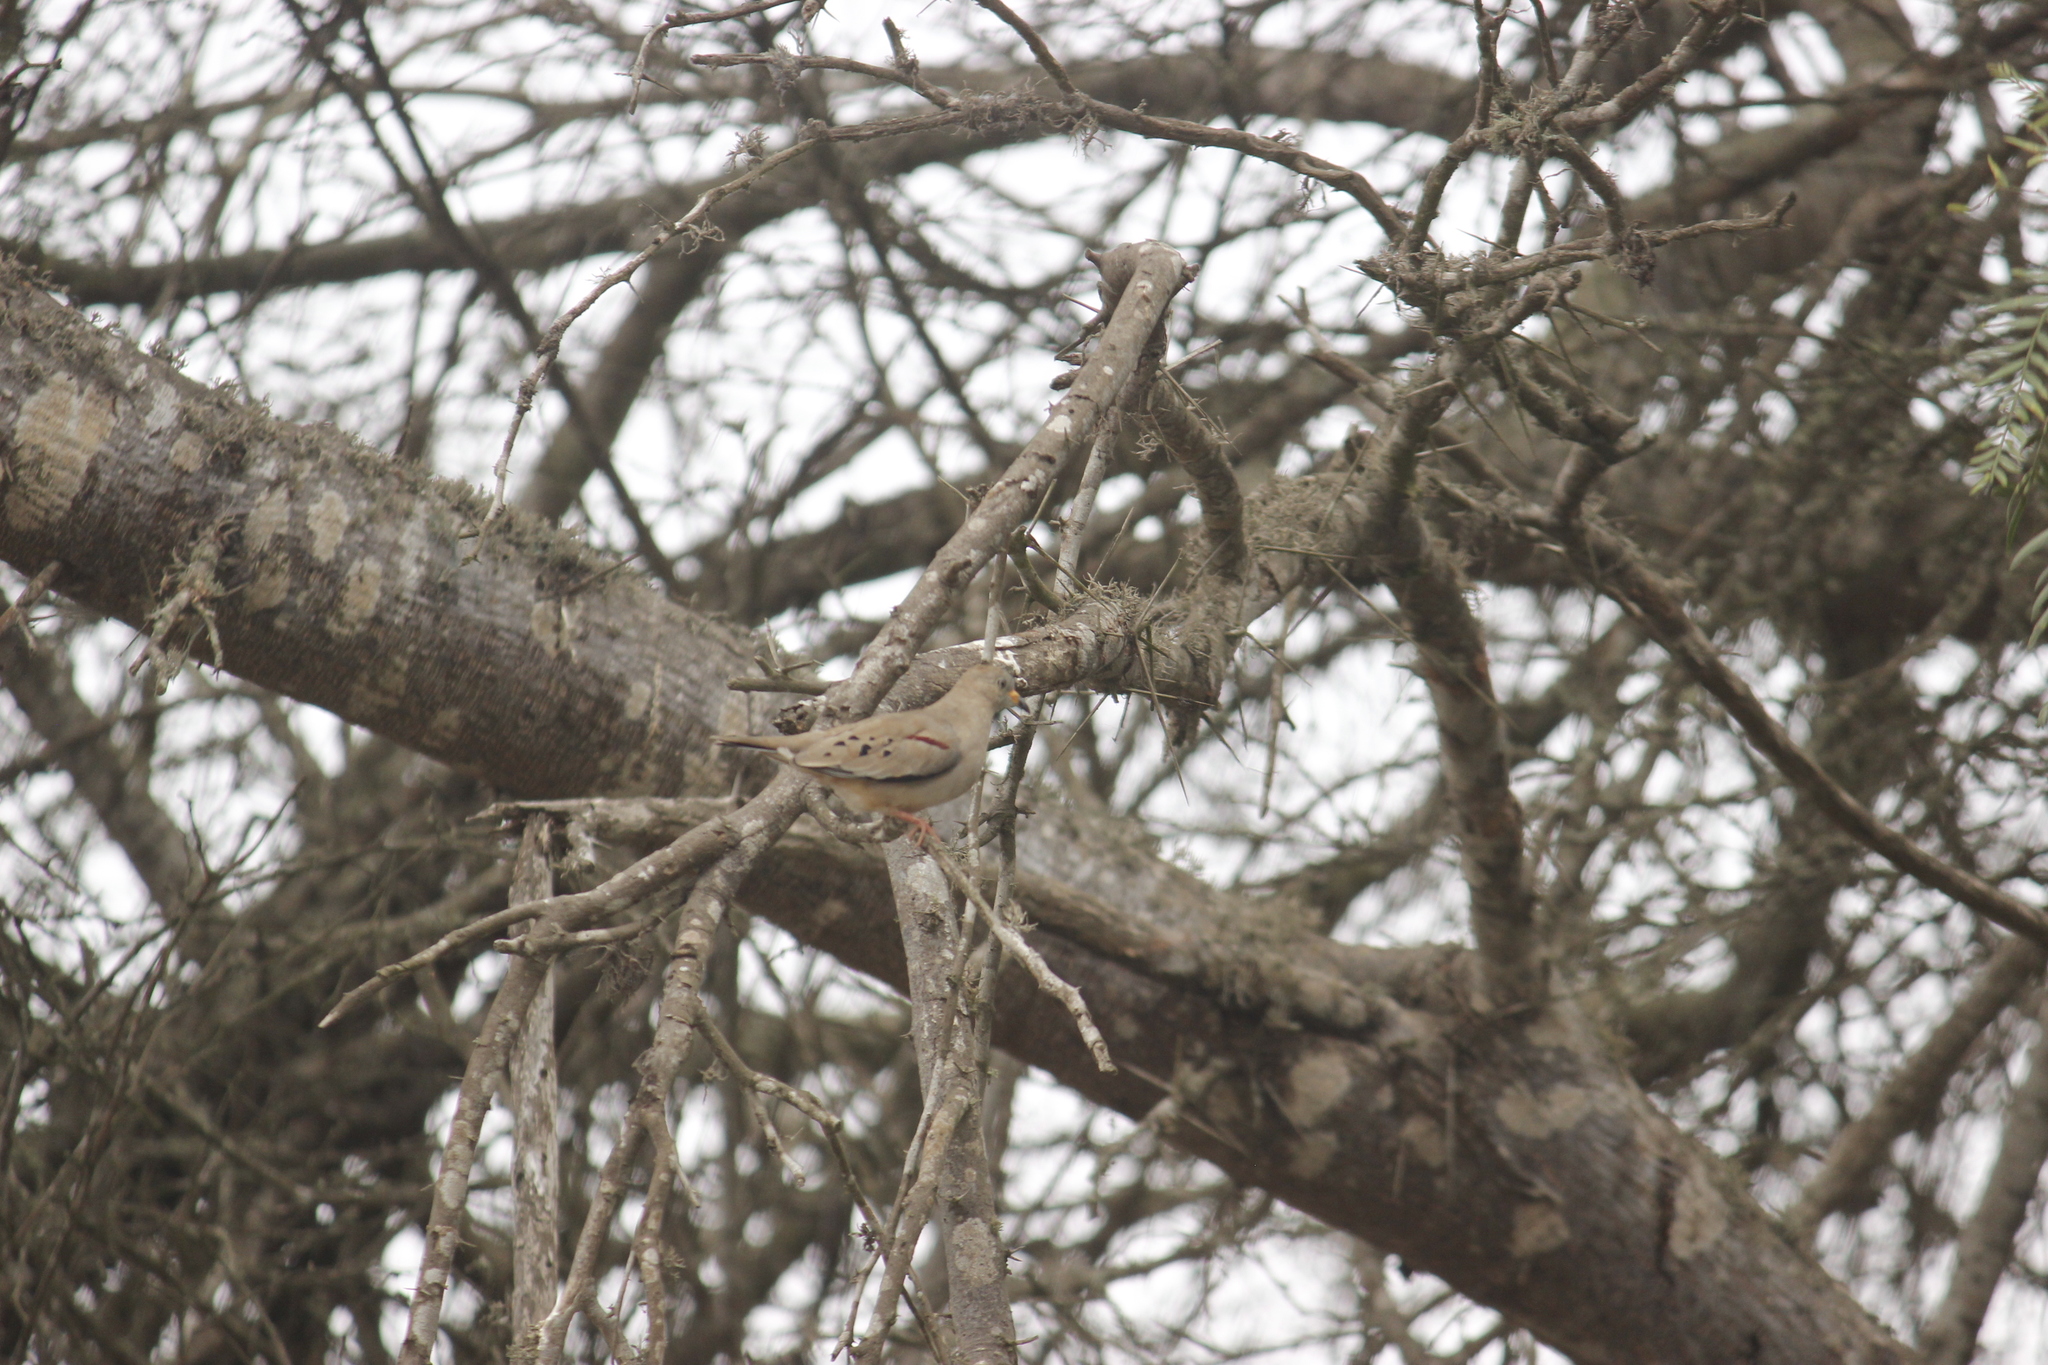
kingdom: Animalia
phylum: Chordata
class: Aves
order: Columbiformes
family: Columbidae
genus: Columbina
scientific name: Columbina cruziana
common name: Croaking ground dove
